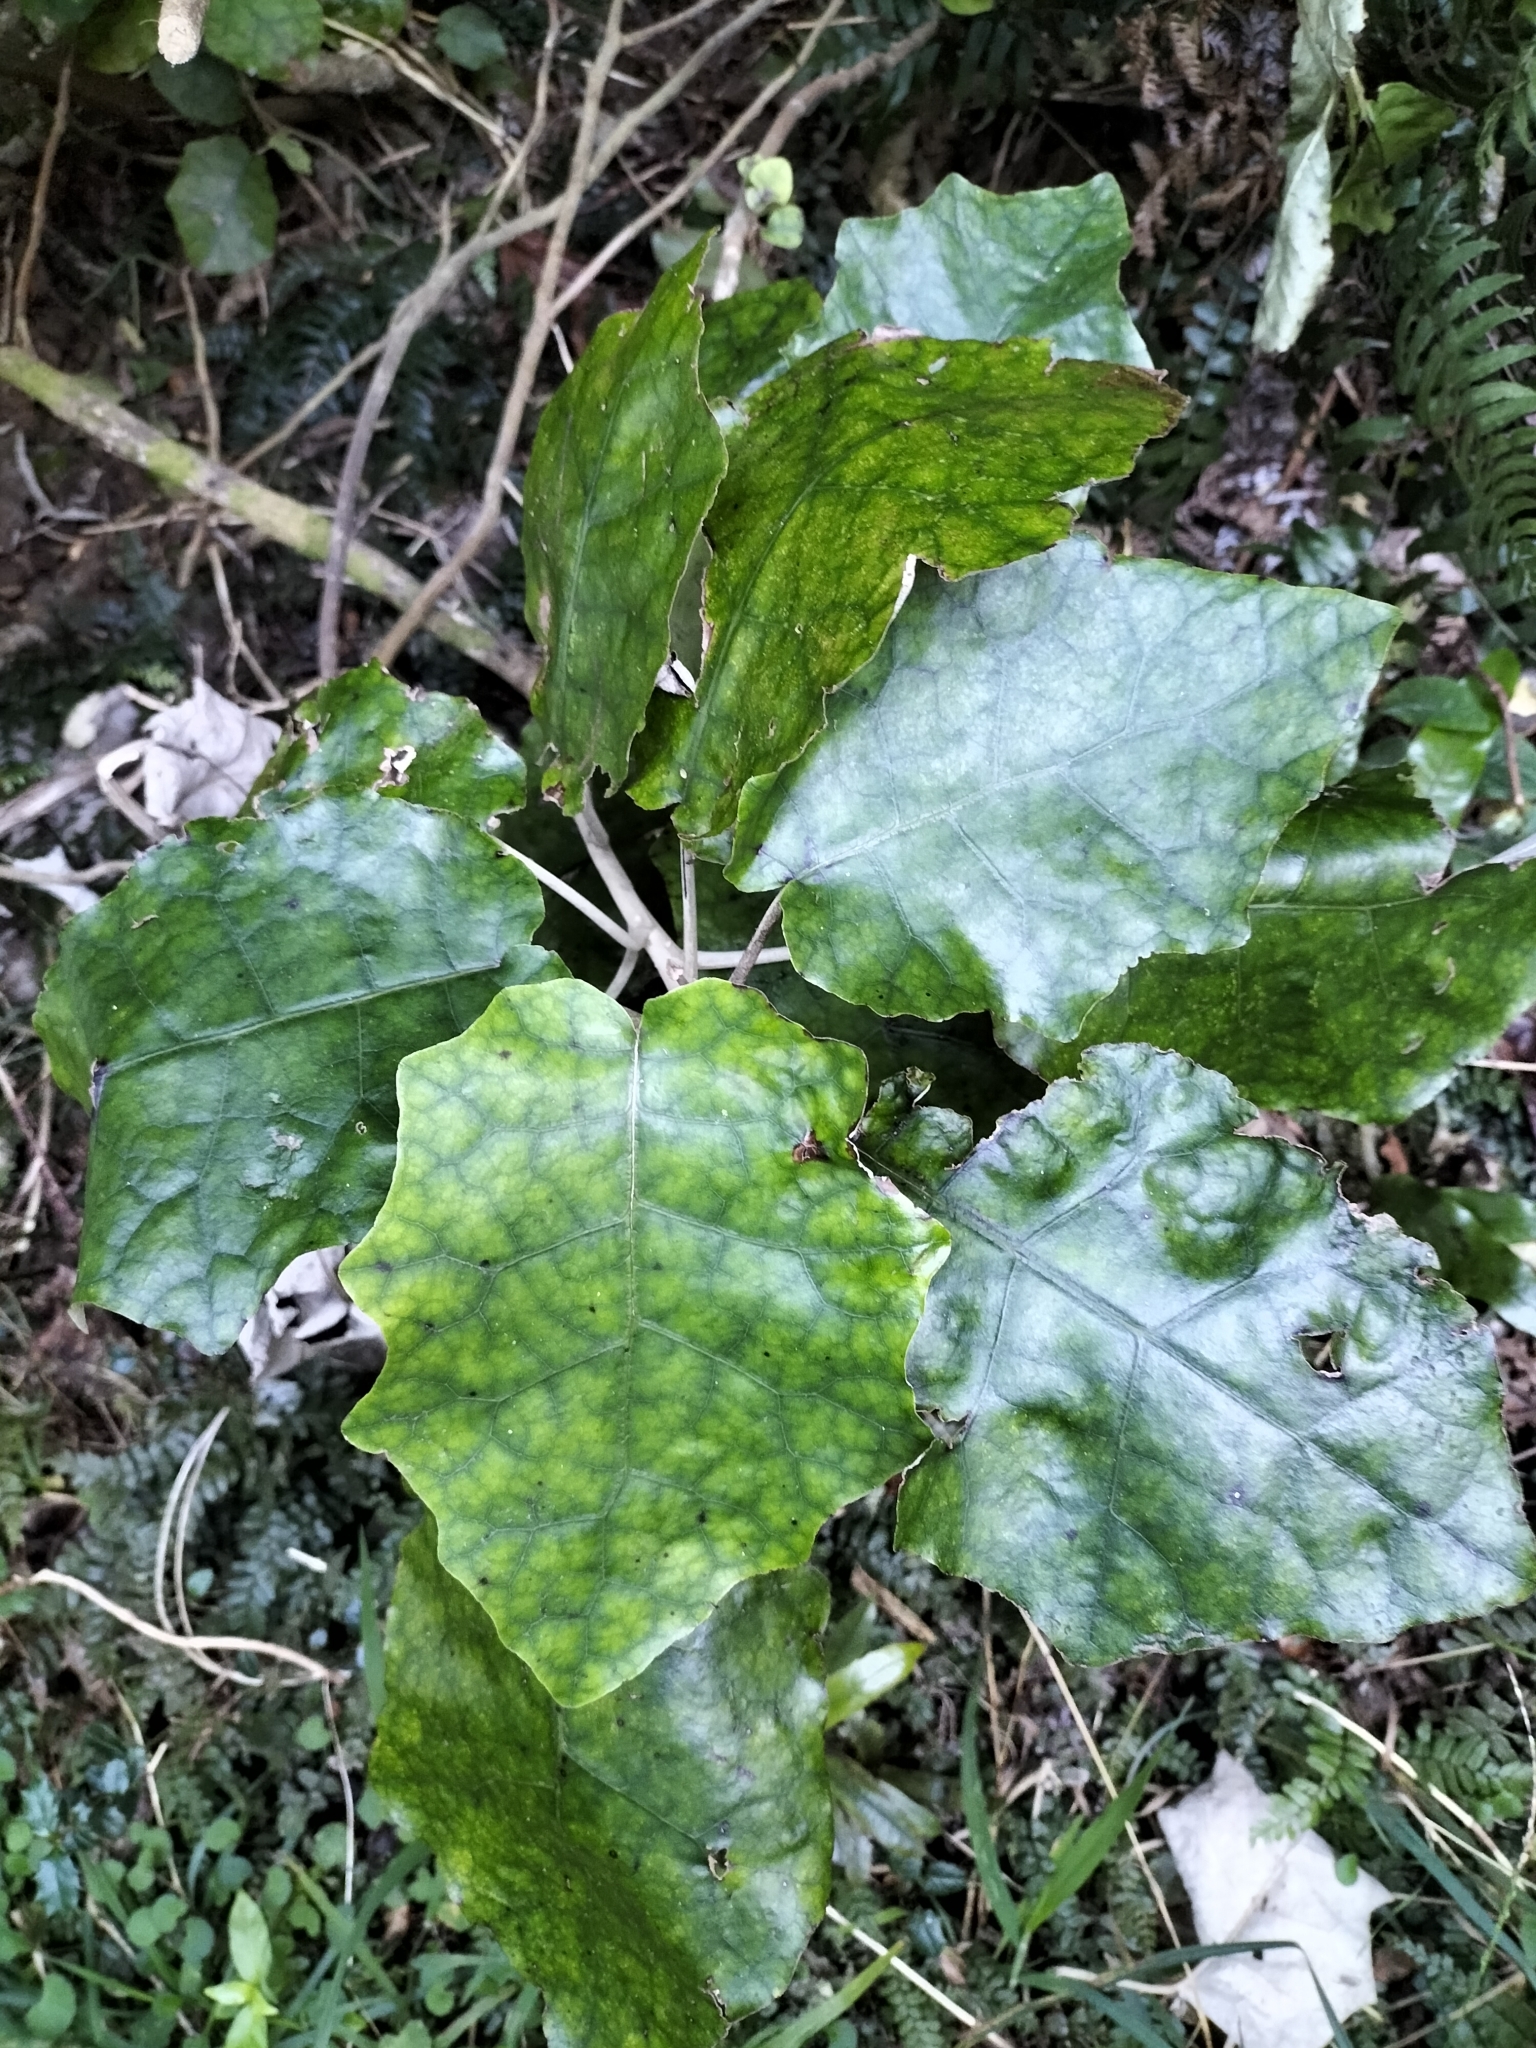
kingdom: Plantae
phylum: Tracheophyta
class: Magnoliopsida
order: Asterales
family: Asteraceae
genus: Brachyglottis
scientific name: Brachyglottis repanda
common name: Hedge ragwort
